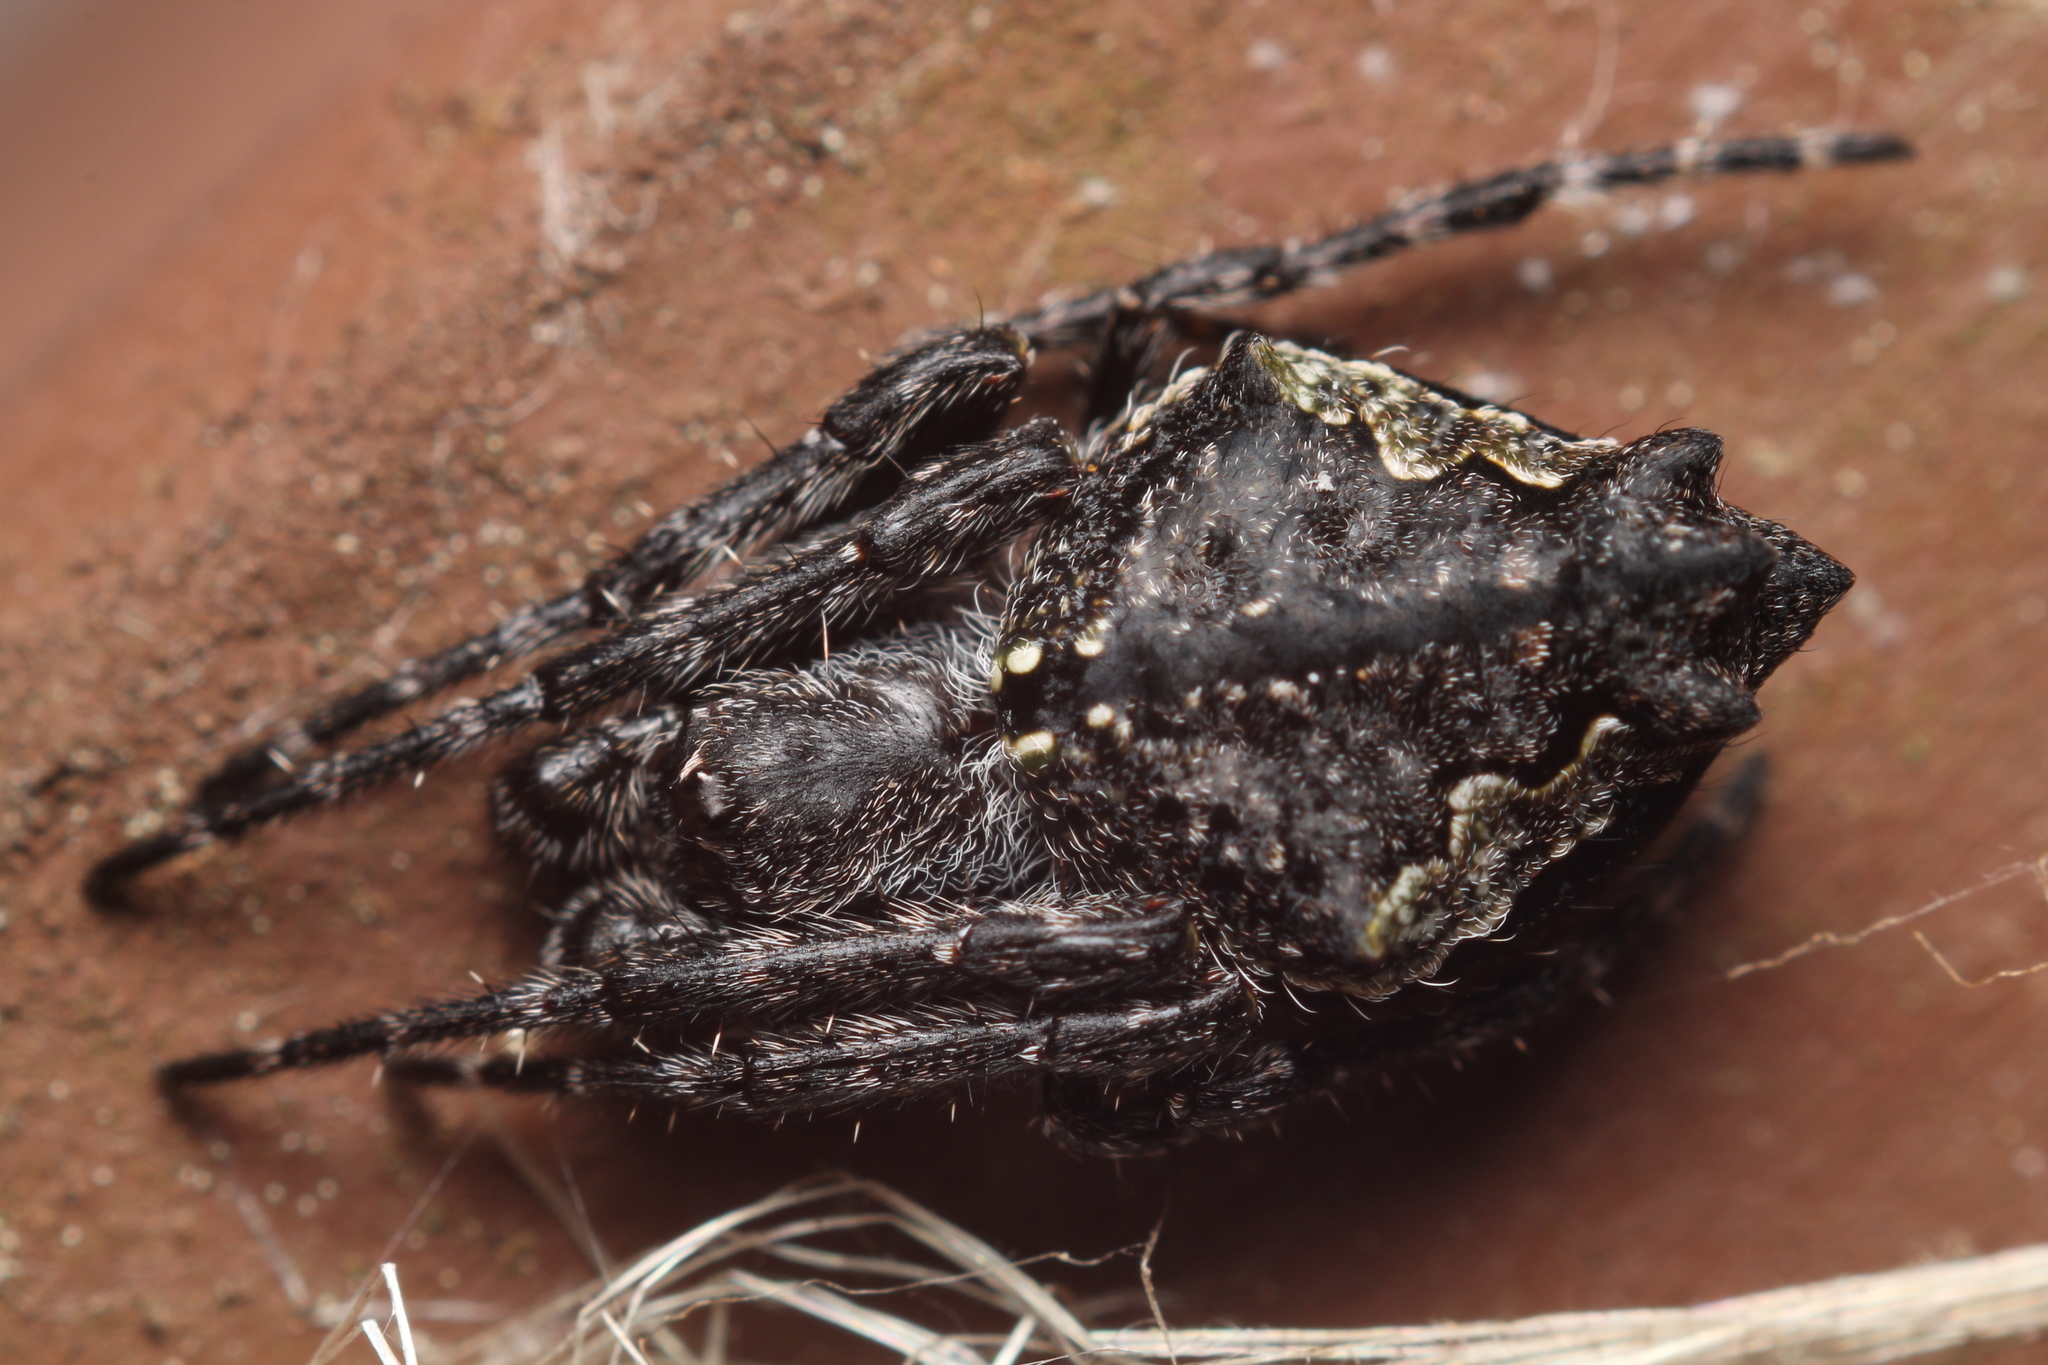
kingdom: Animalia
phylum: Arthropoda
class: Arachnida
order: Araneae
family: Araneidae
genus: Eriophora
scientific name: Eriophora pustulosa
